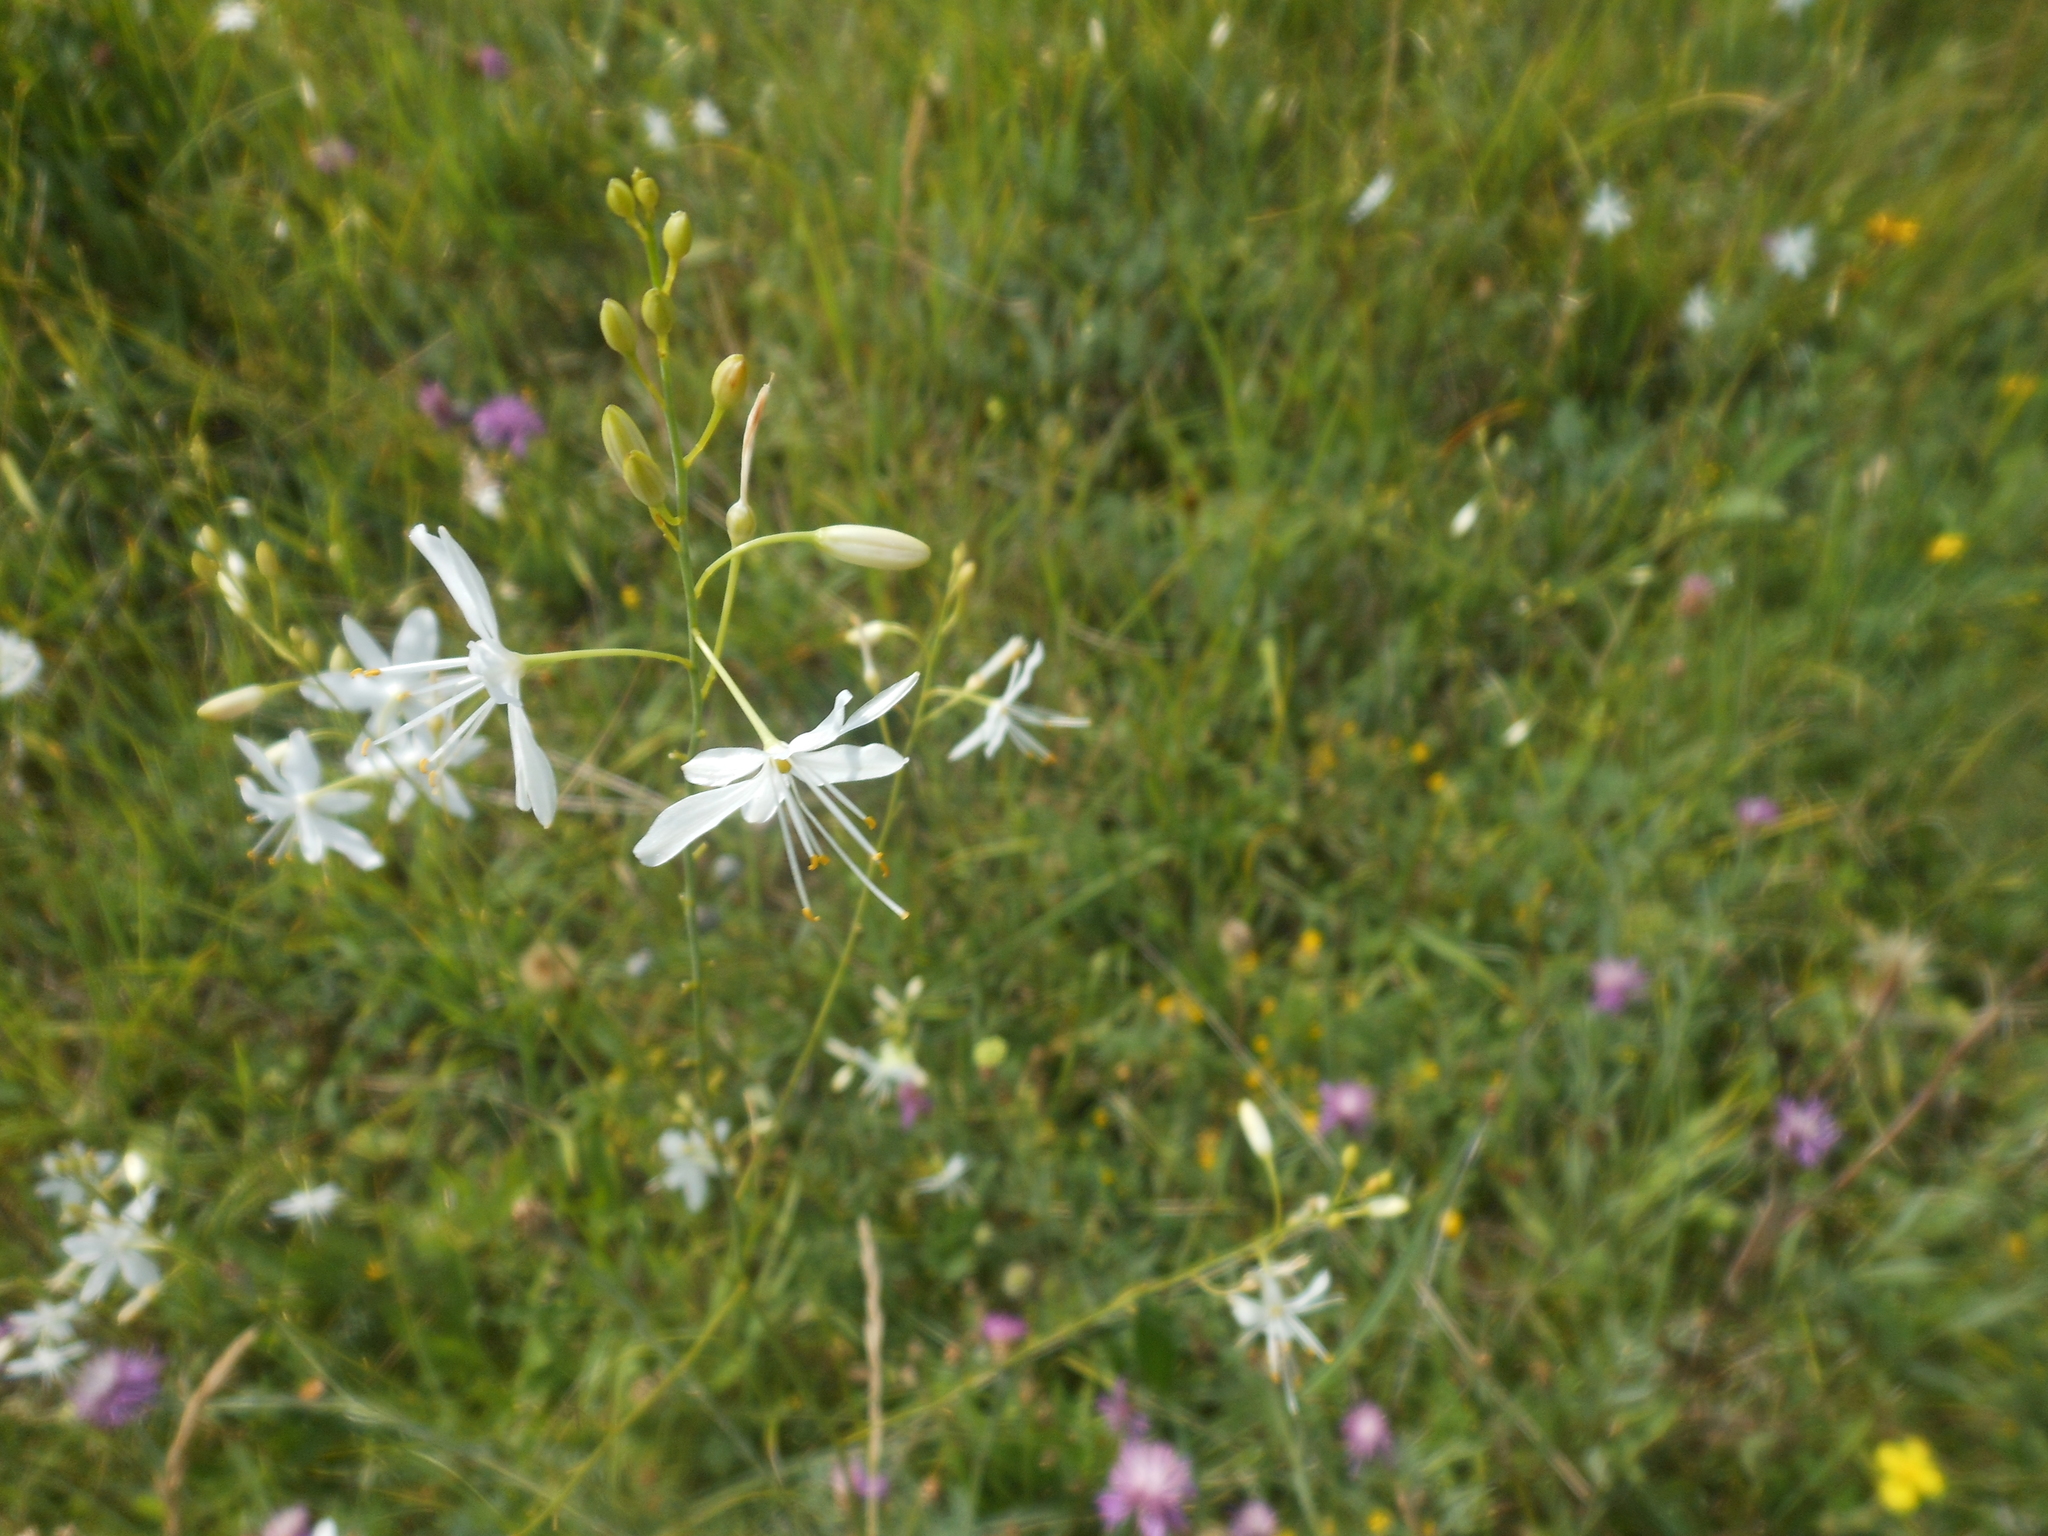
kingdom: Plantae
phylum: Tracheophyta
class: Liliopsida
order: Asparagales
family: Asparagaceae
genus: Anthericum
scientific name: Anthericum ramosum
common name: Branched st. bernard's-lily
